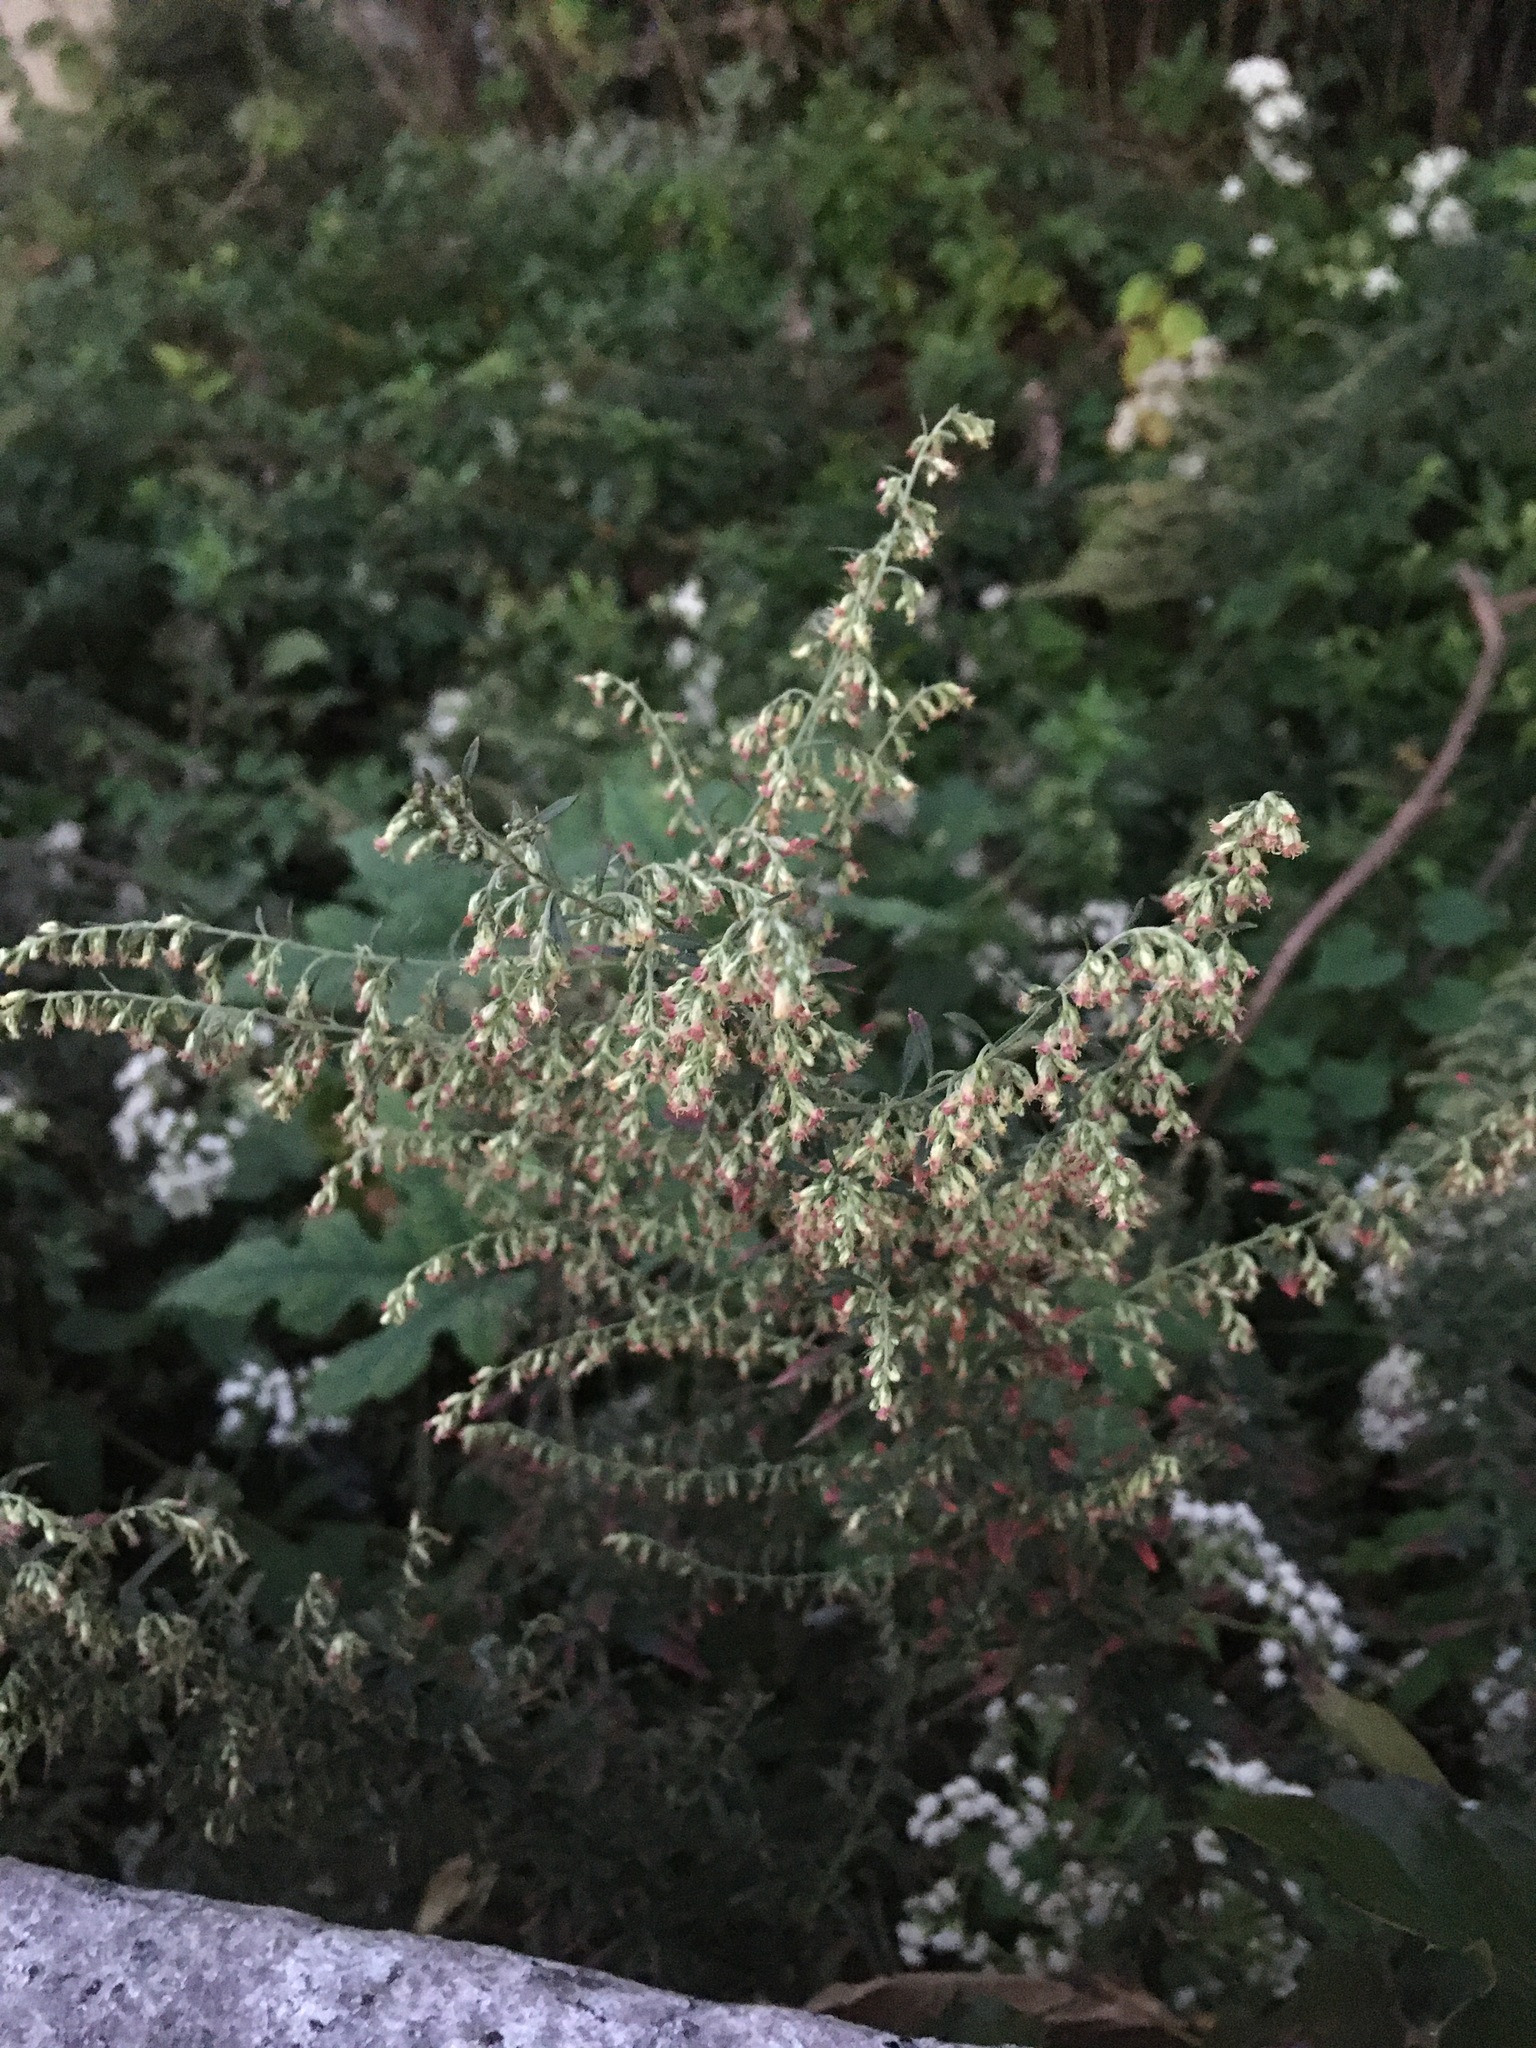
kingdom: Plantae
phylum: Tracheophyta
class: Magnoliopsida
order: Asterales
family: Asteraceae
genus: Artemisia
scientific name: Artemisia vulgaris
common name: Mugwort
